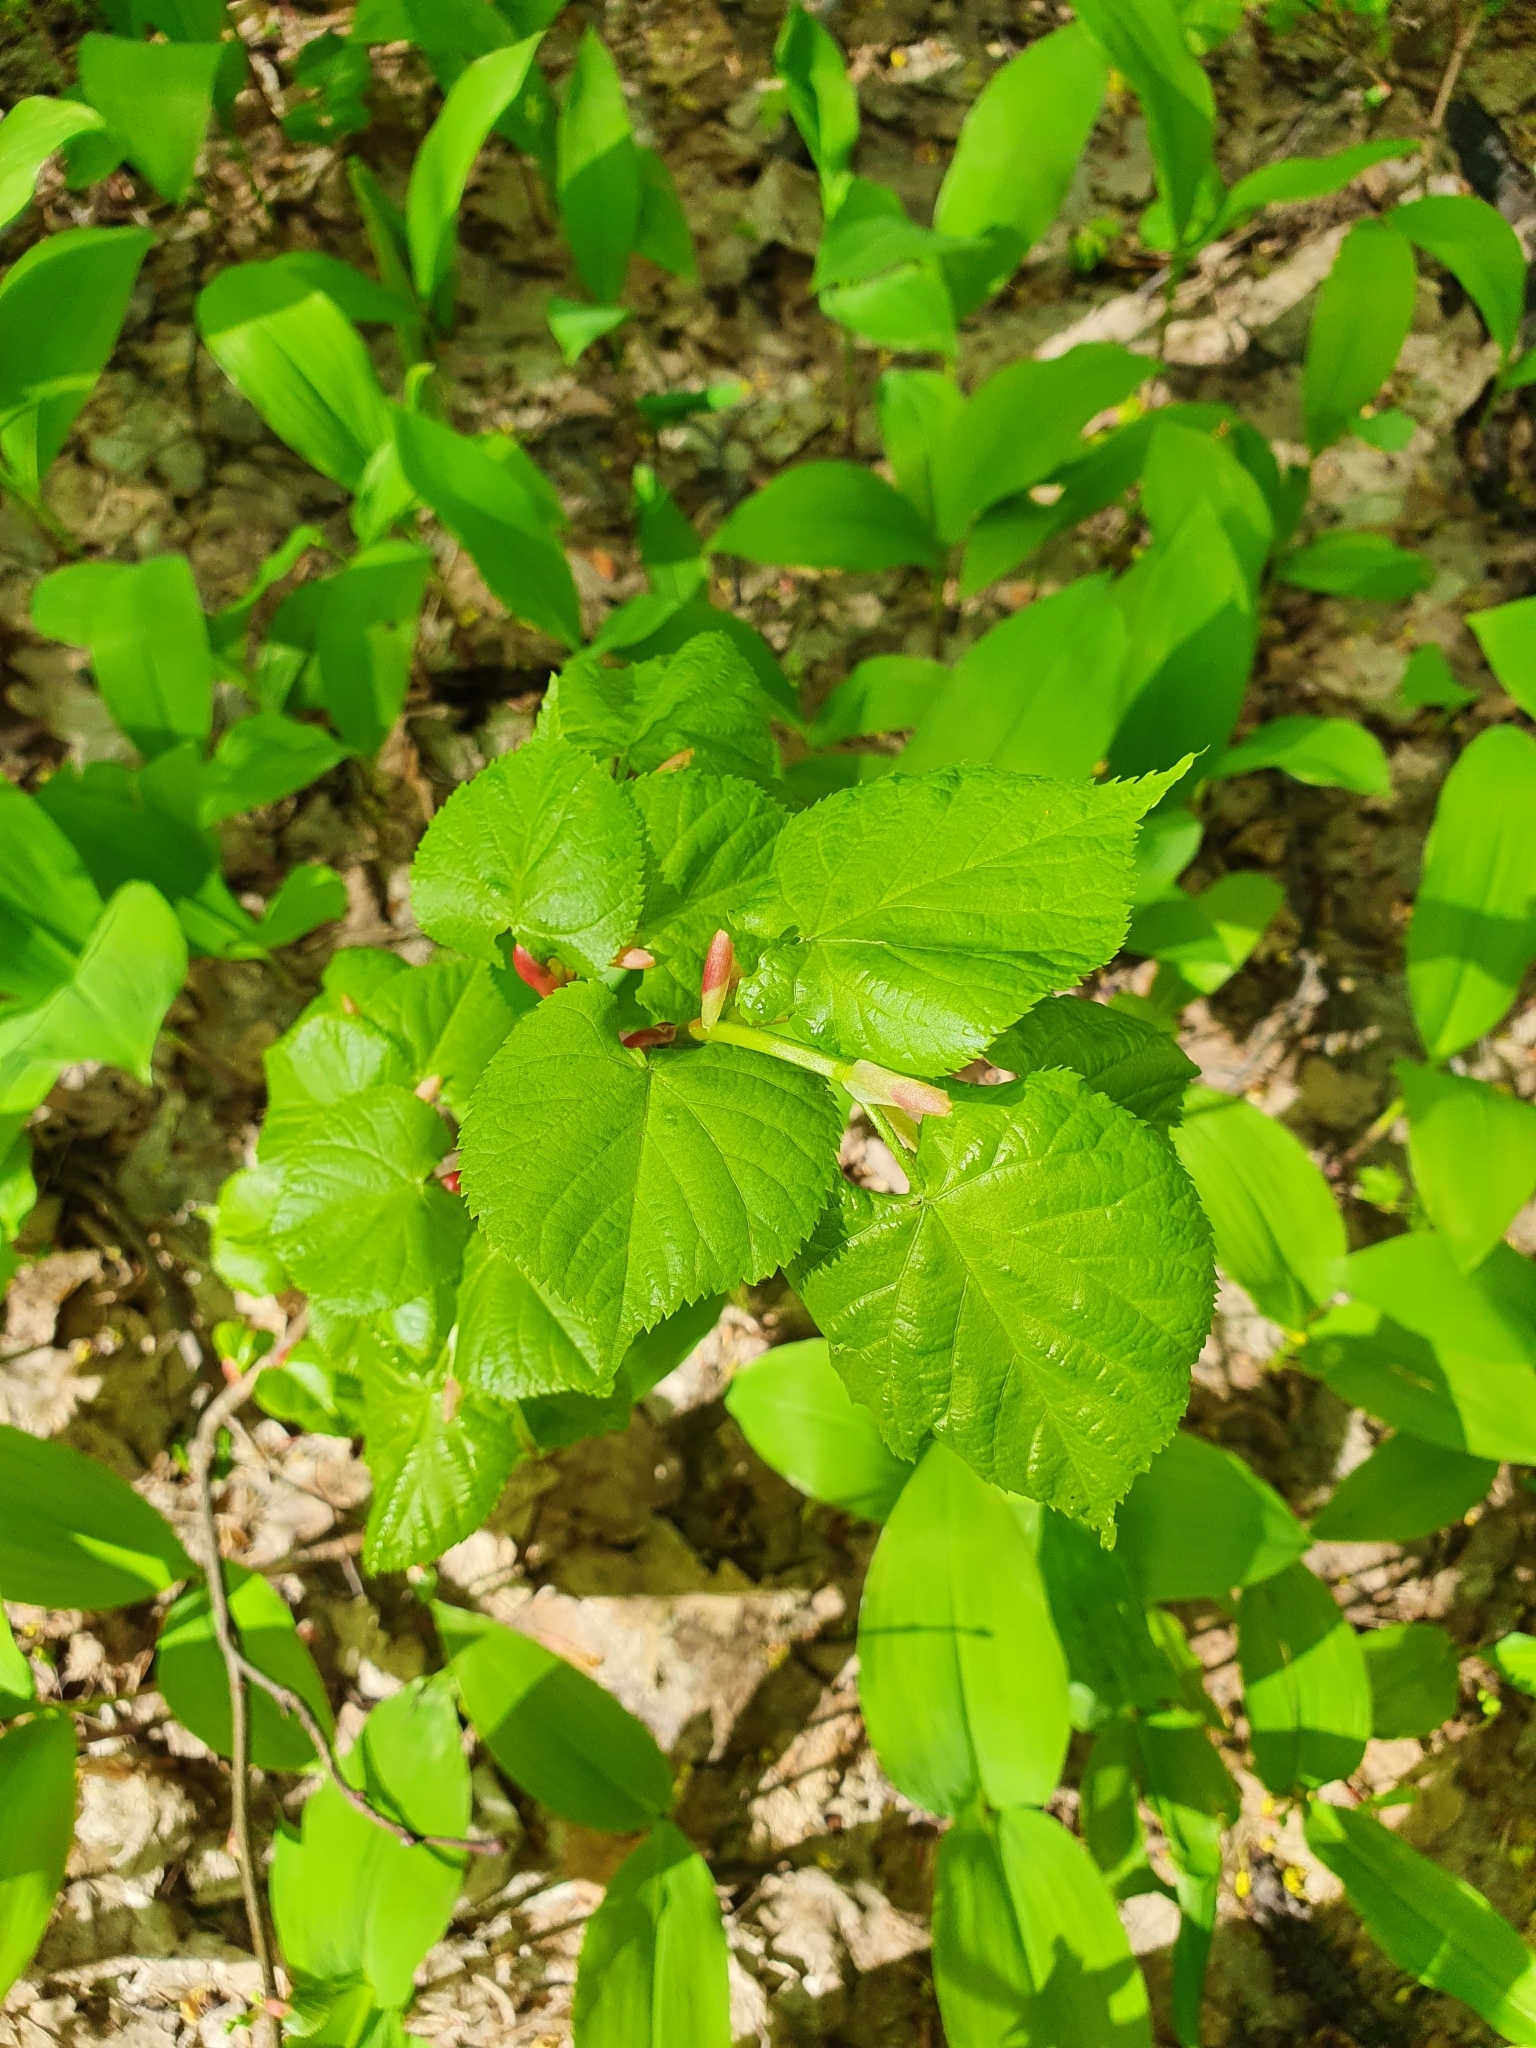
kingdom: Plantae
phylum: Tracheophyta
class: Magnoliopsida
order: Malvales
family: Malvaceae
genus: Tilia
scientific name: Tilia cordata
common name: Small-leaved lime
